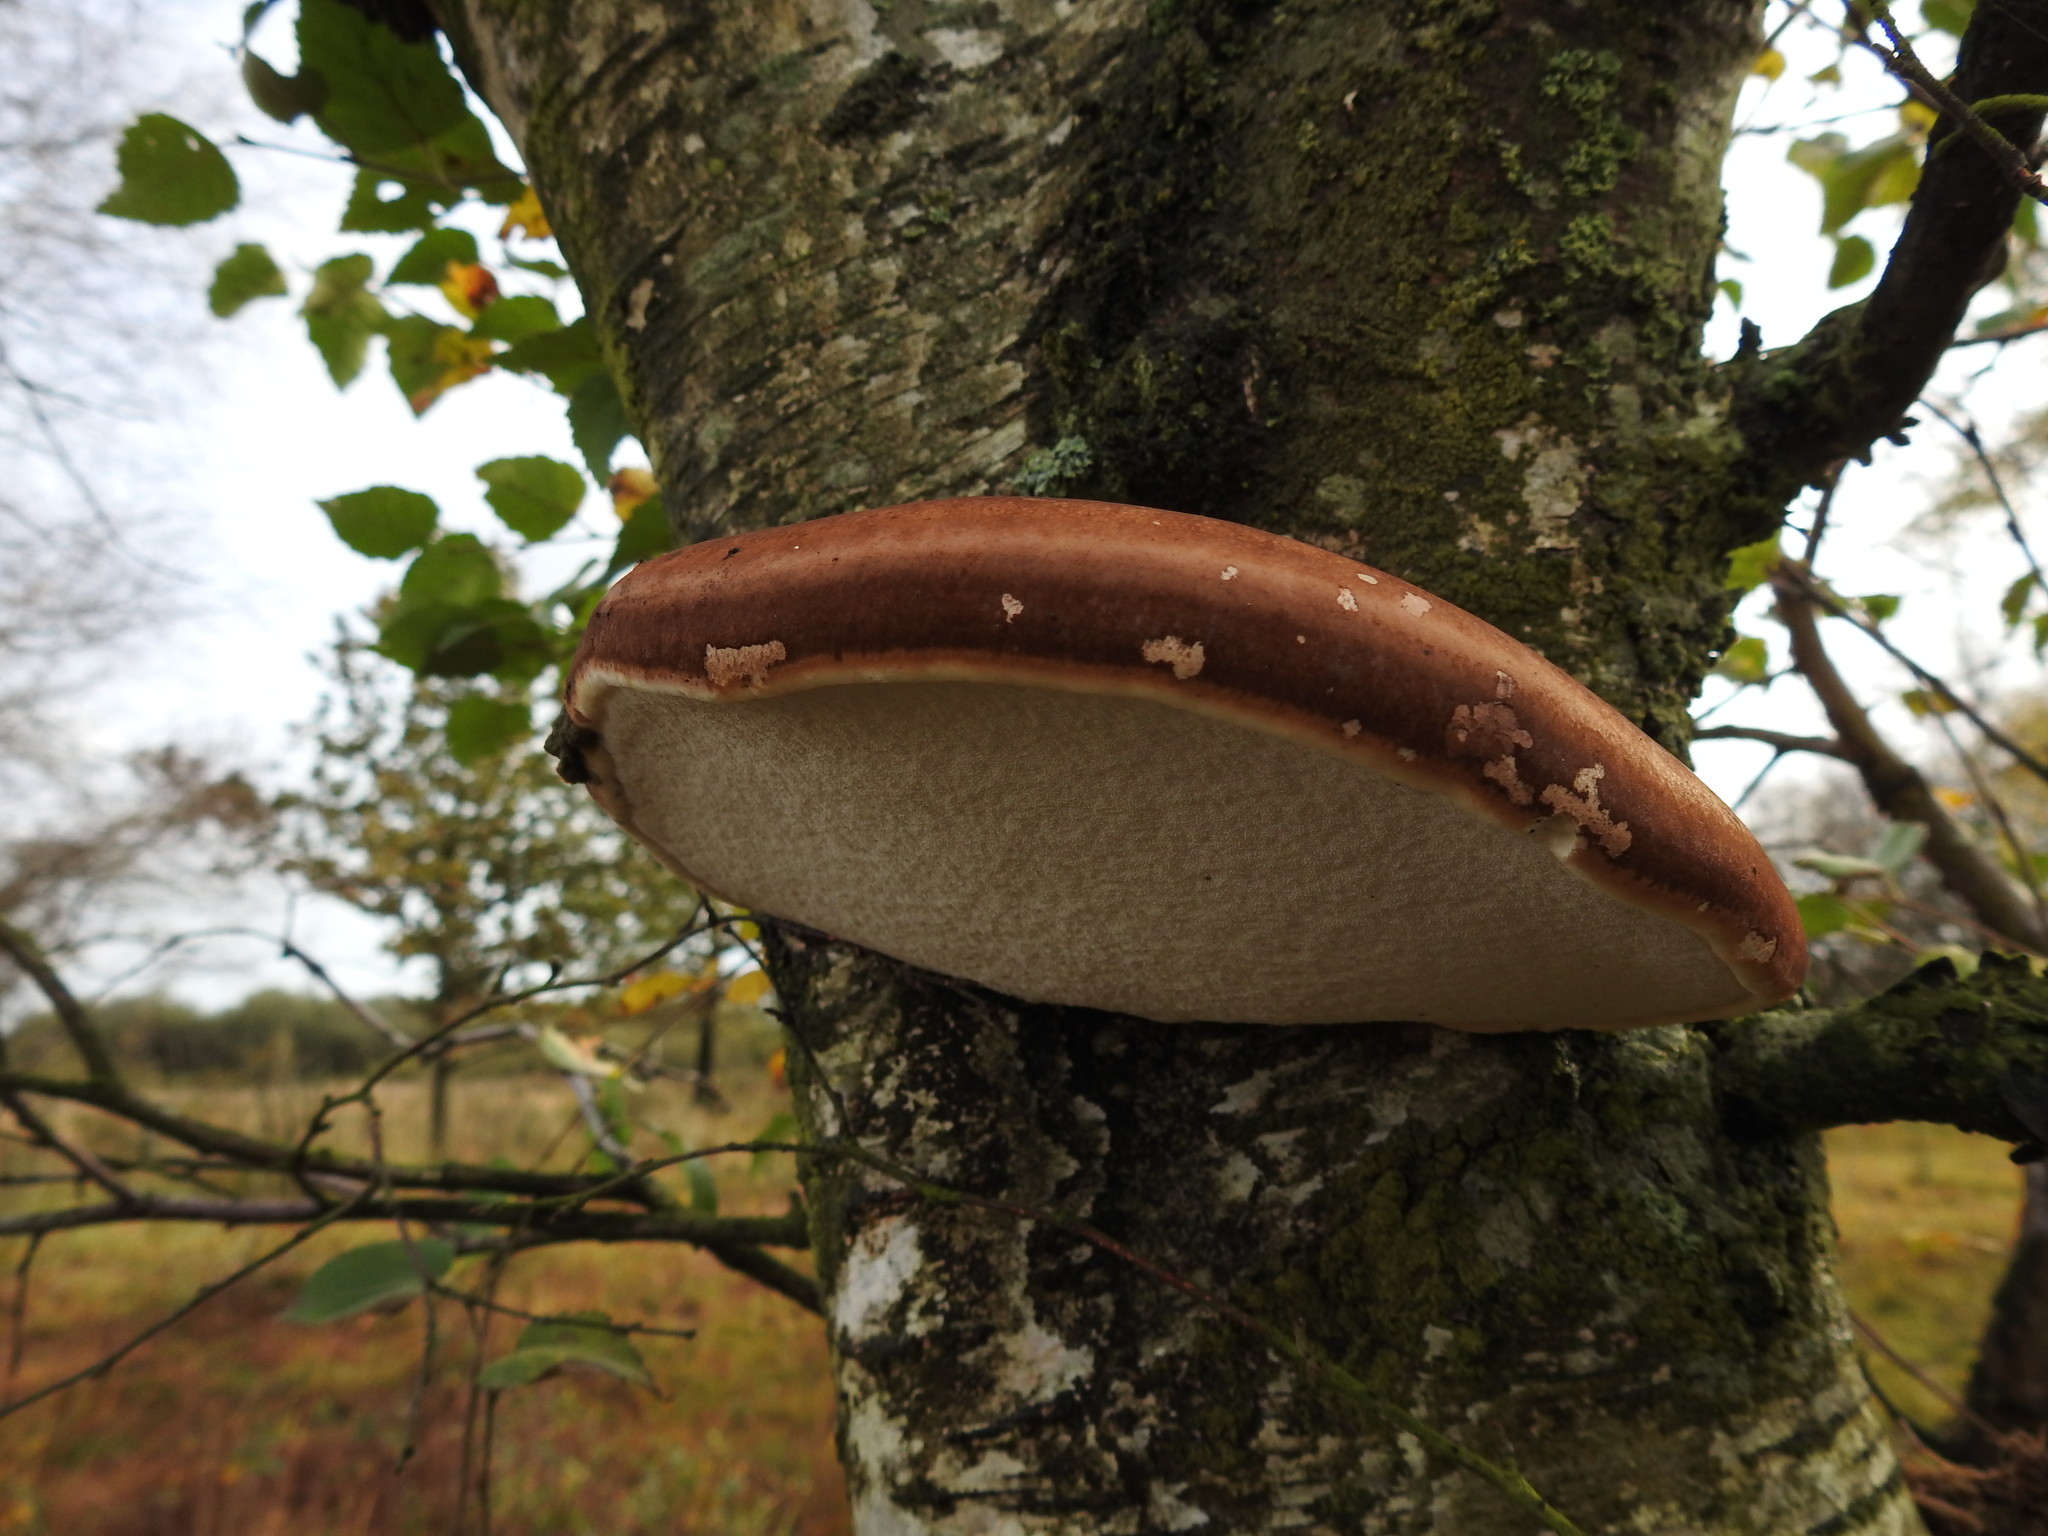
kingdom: Fungi
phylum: Basidiomycota
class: Agaricomycetes
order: Polyporales
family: Fomitopsidaceae
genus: Fomitopsis
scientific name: Fomitopsis betulina
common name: Birch polypore
